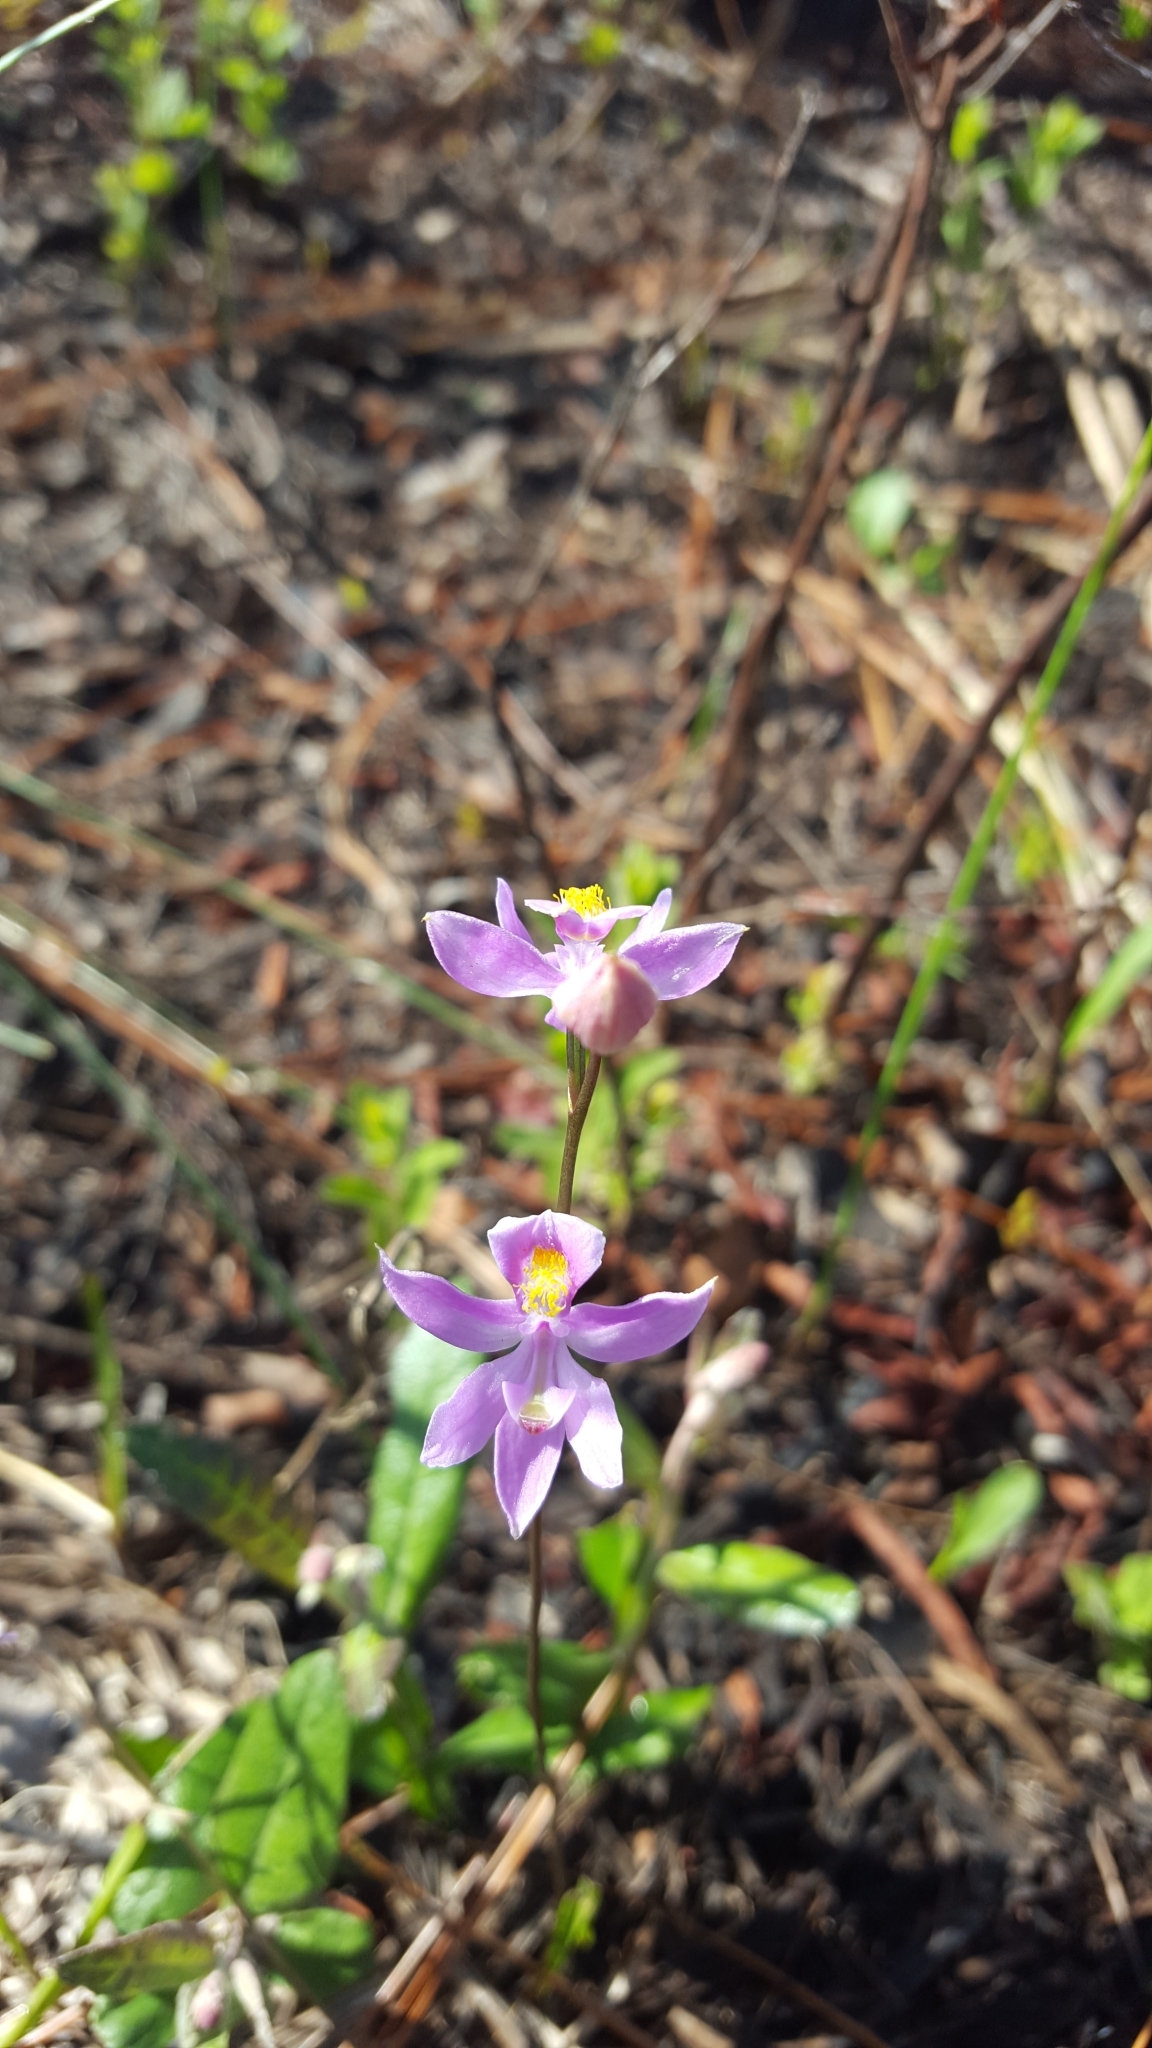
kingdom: Plantae
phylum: Tracheophyta
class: Liliopsida
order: Asparagales
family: Orchidaceae
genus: Calopogon
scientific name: Calopogon multiflorus
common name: Many-flowered grass-pink orchid
